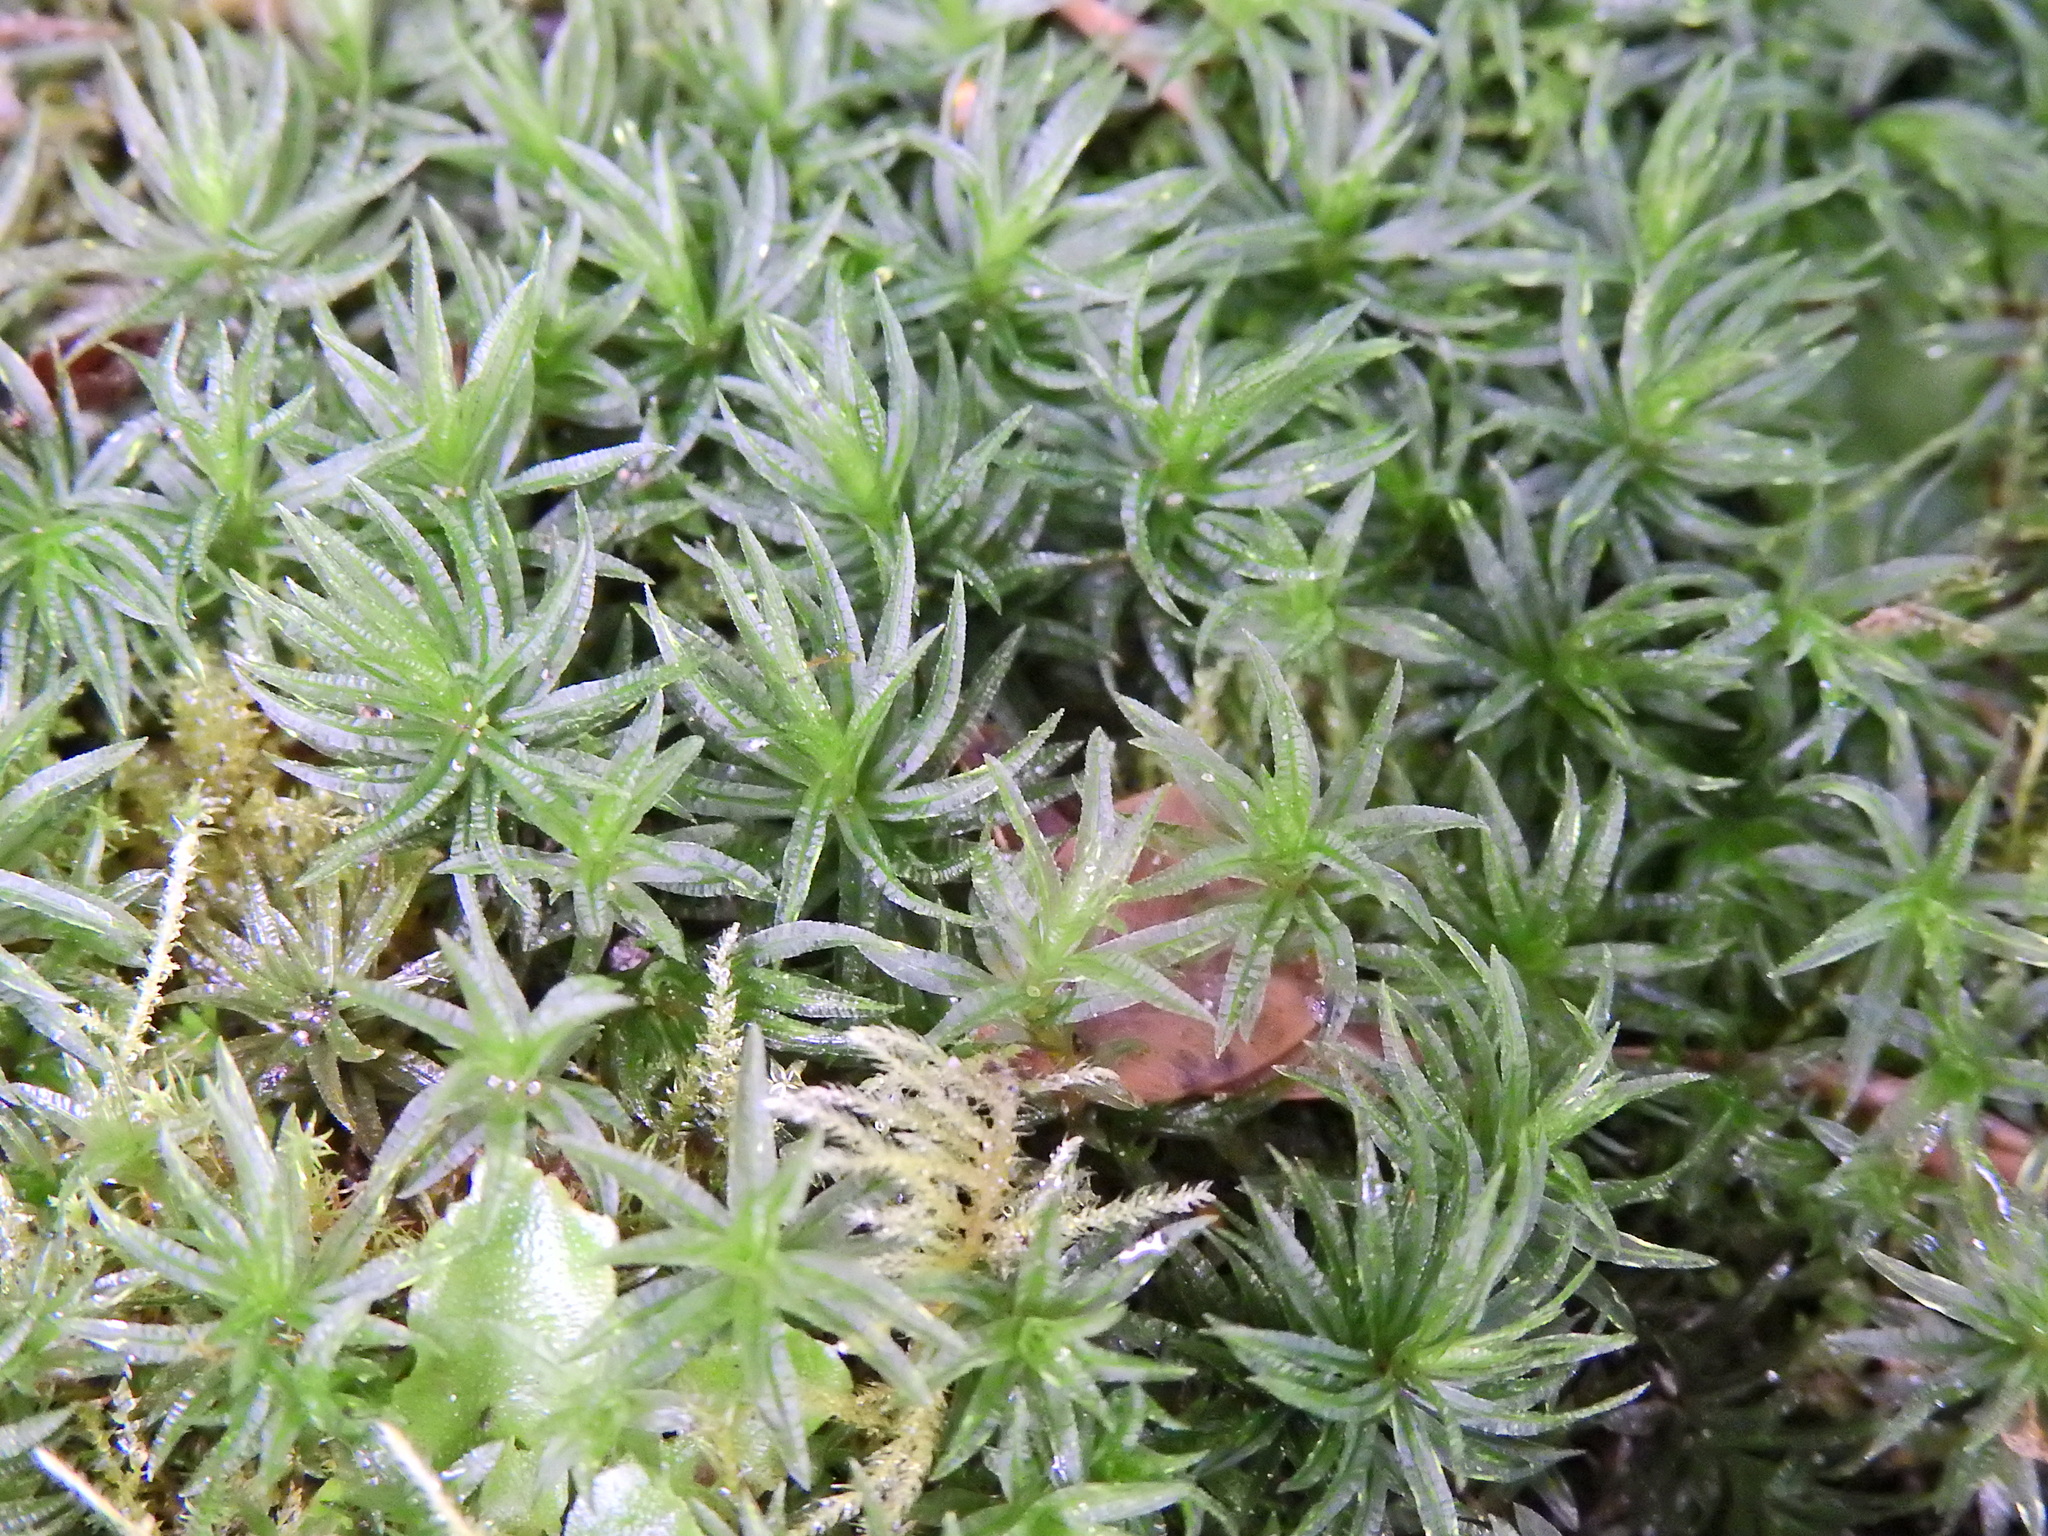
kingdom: Plantae
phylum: Bryophyta
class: Polytrichopsida
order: Polytrichales
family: Polytrichaceae
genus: Atrichum
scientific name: Atrichum undulatum
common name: Common smoothcap
